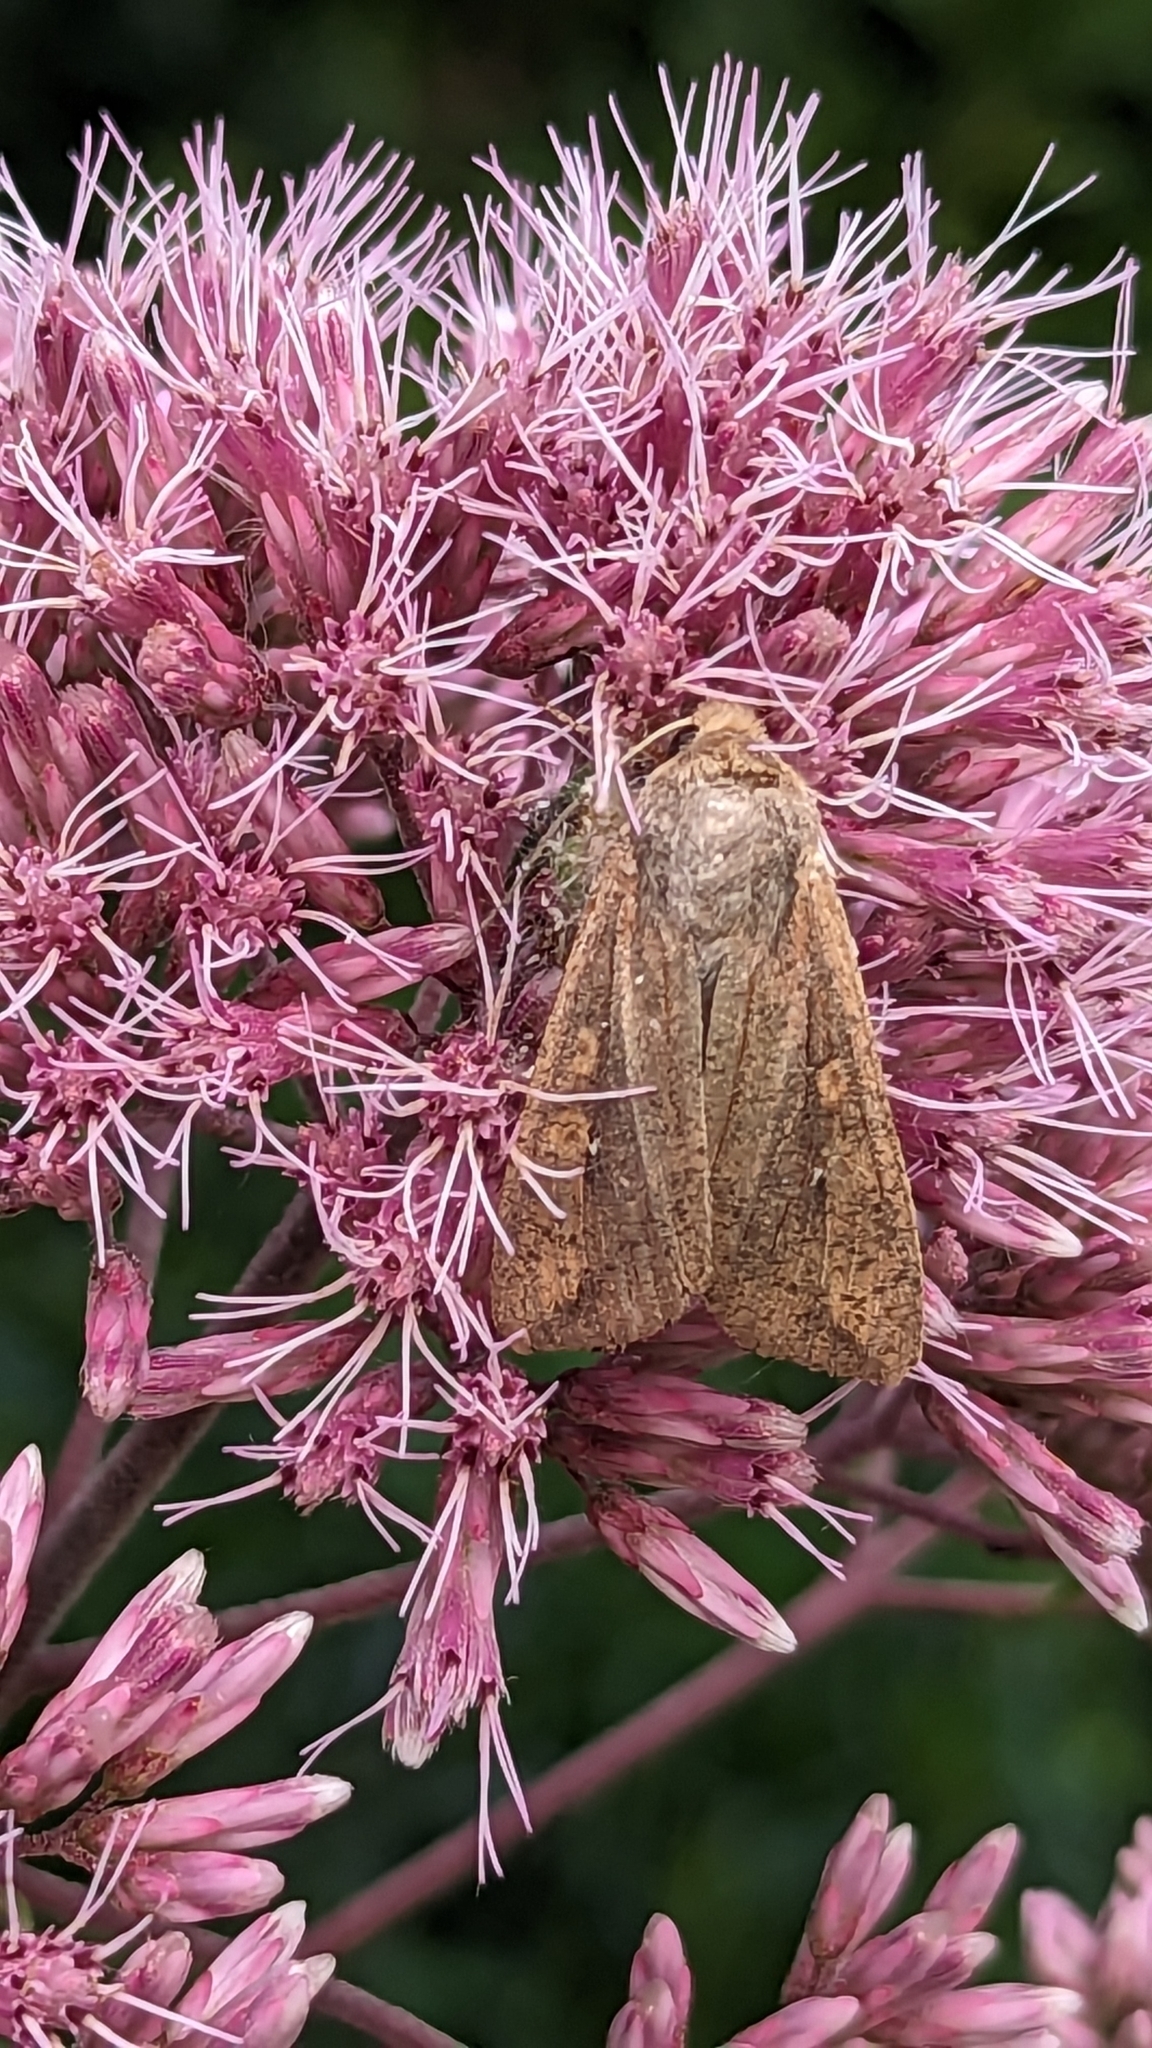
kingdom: Animalia
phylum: Arthropoda
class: Insecta
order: Lepidoptera
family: Noctuidae
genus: Mythimna
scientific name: Mythimna unipuncta
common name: White-speck
